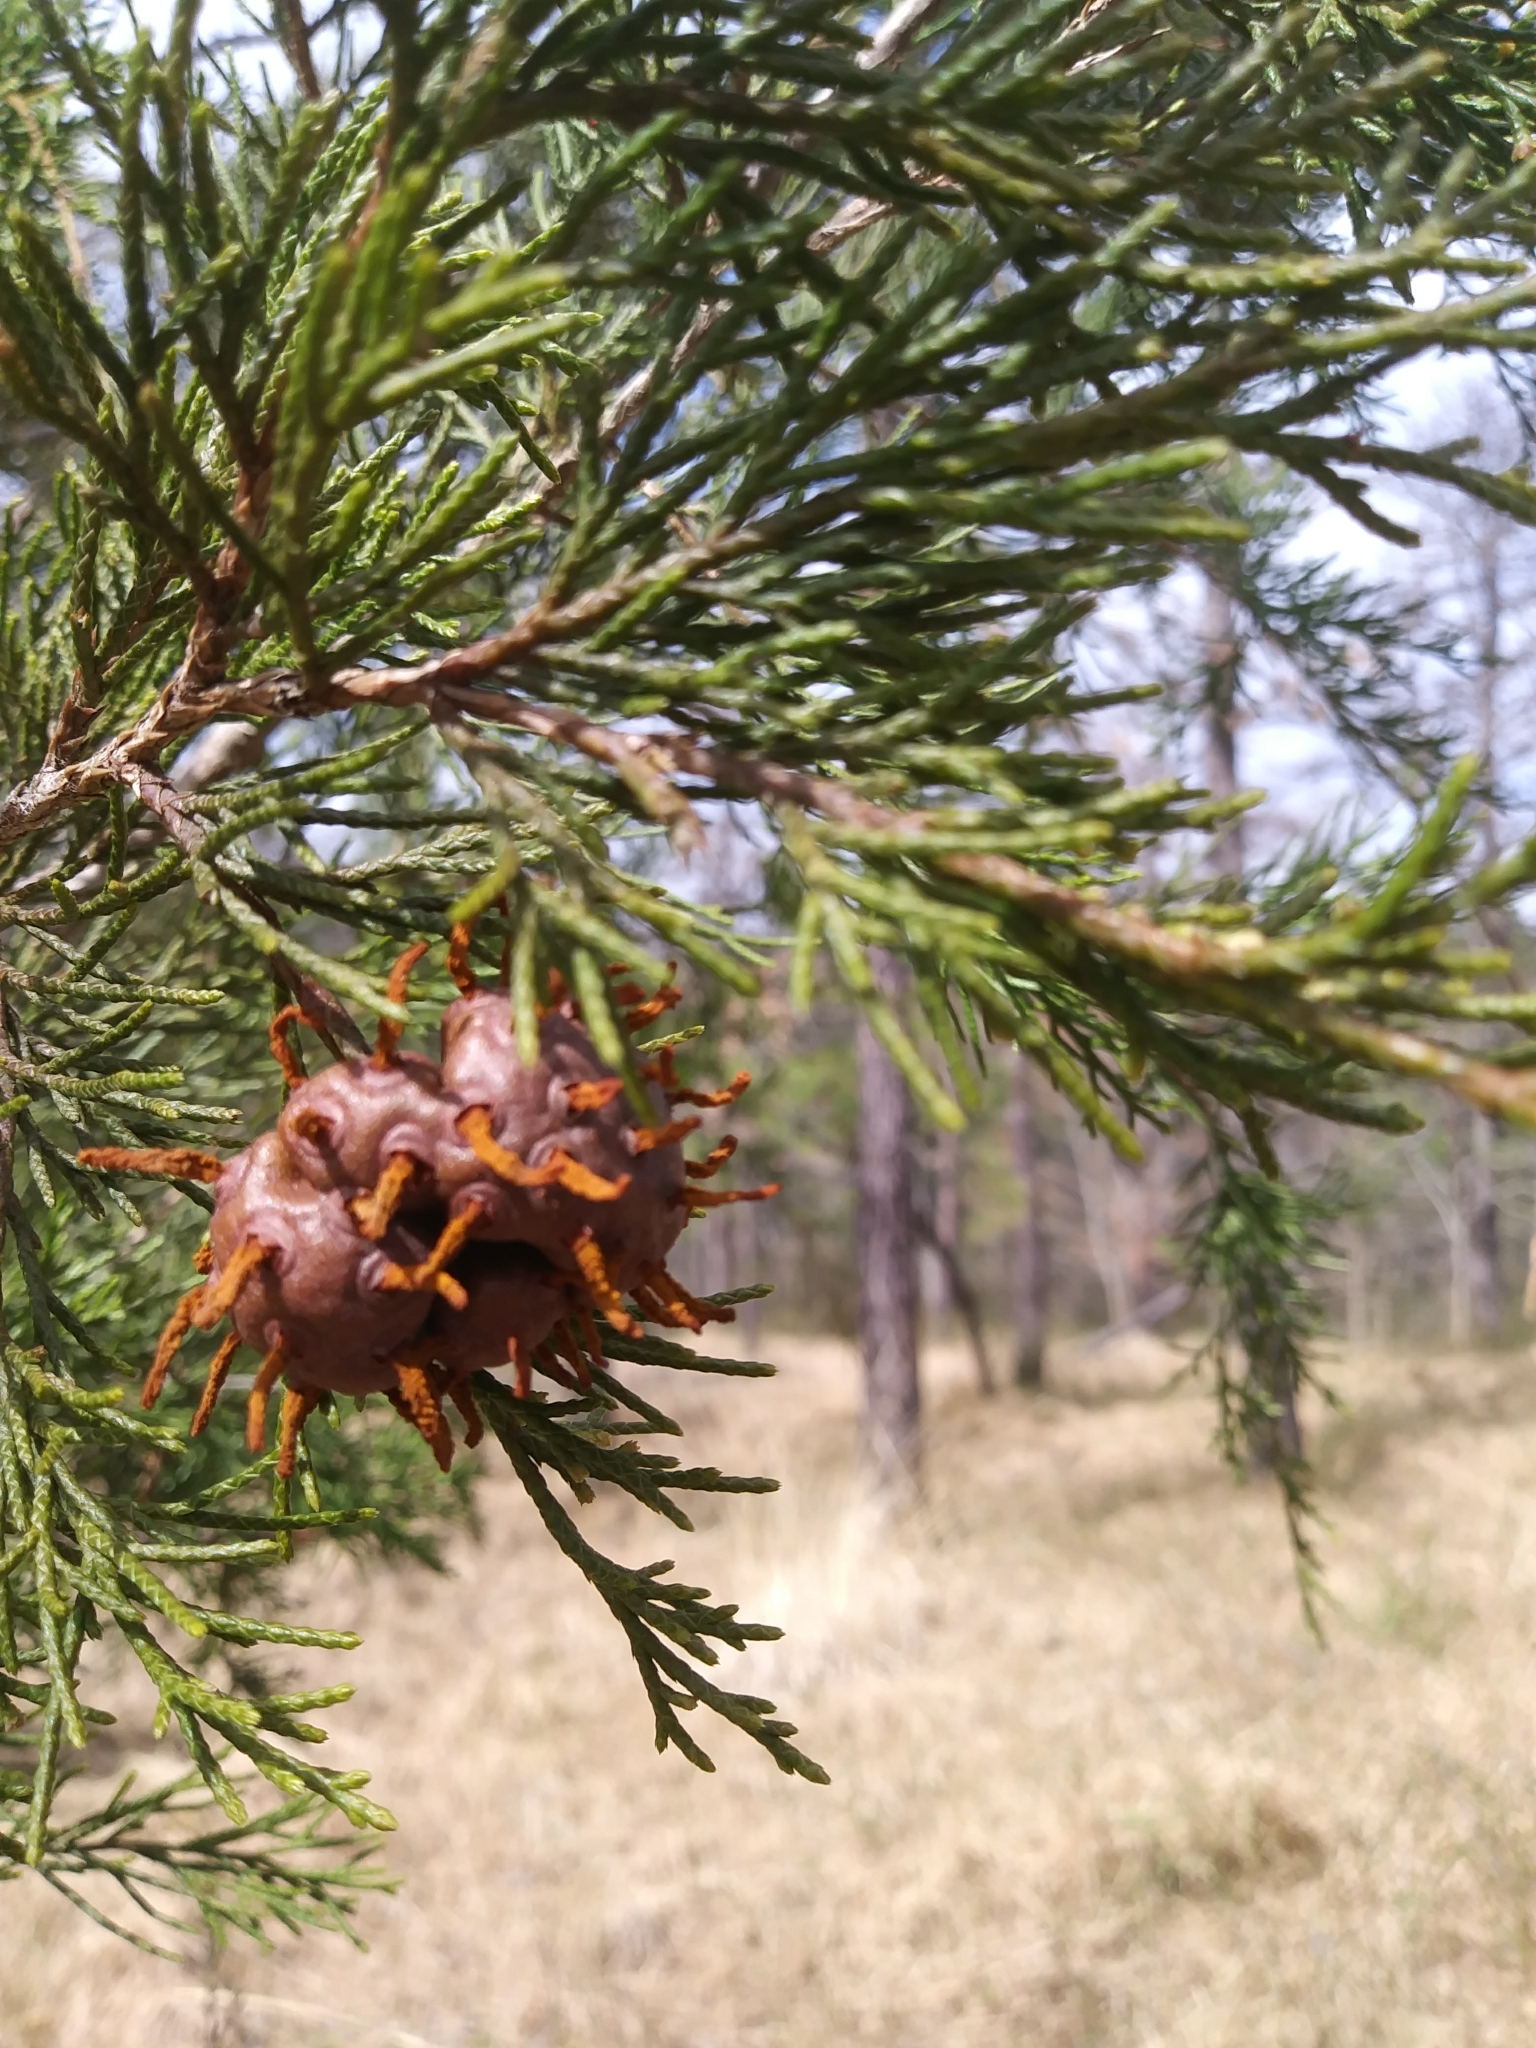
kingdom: Fungi
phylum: Basidiomycota
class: Pucciniomycetes
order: Pucciniales
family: Gymnosporangiaceae
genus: Gymnosporangium
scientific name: Gymnosporangium juniperi-virginianae
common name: Juniper-apple rust
